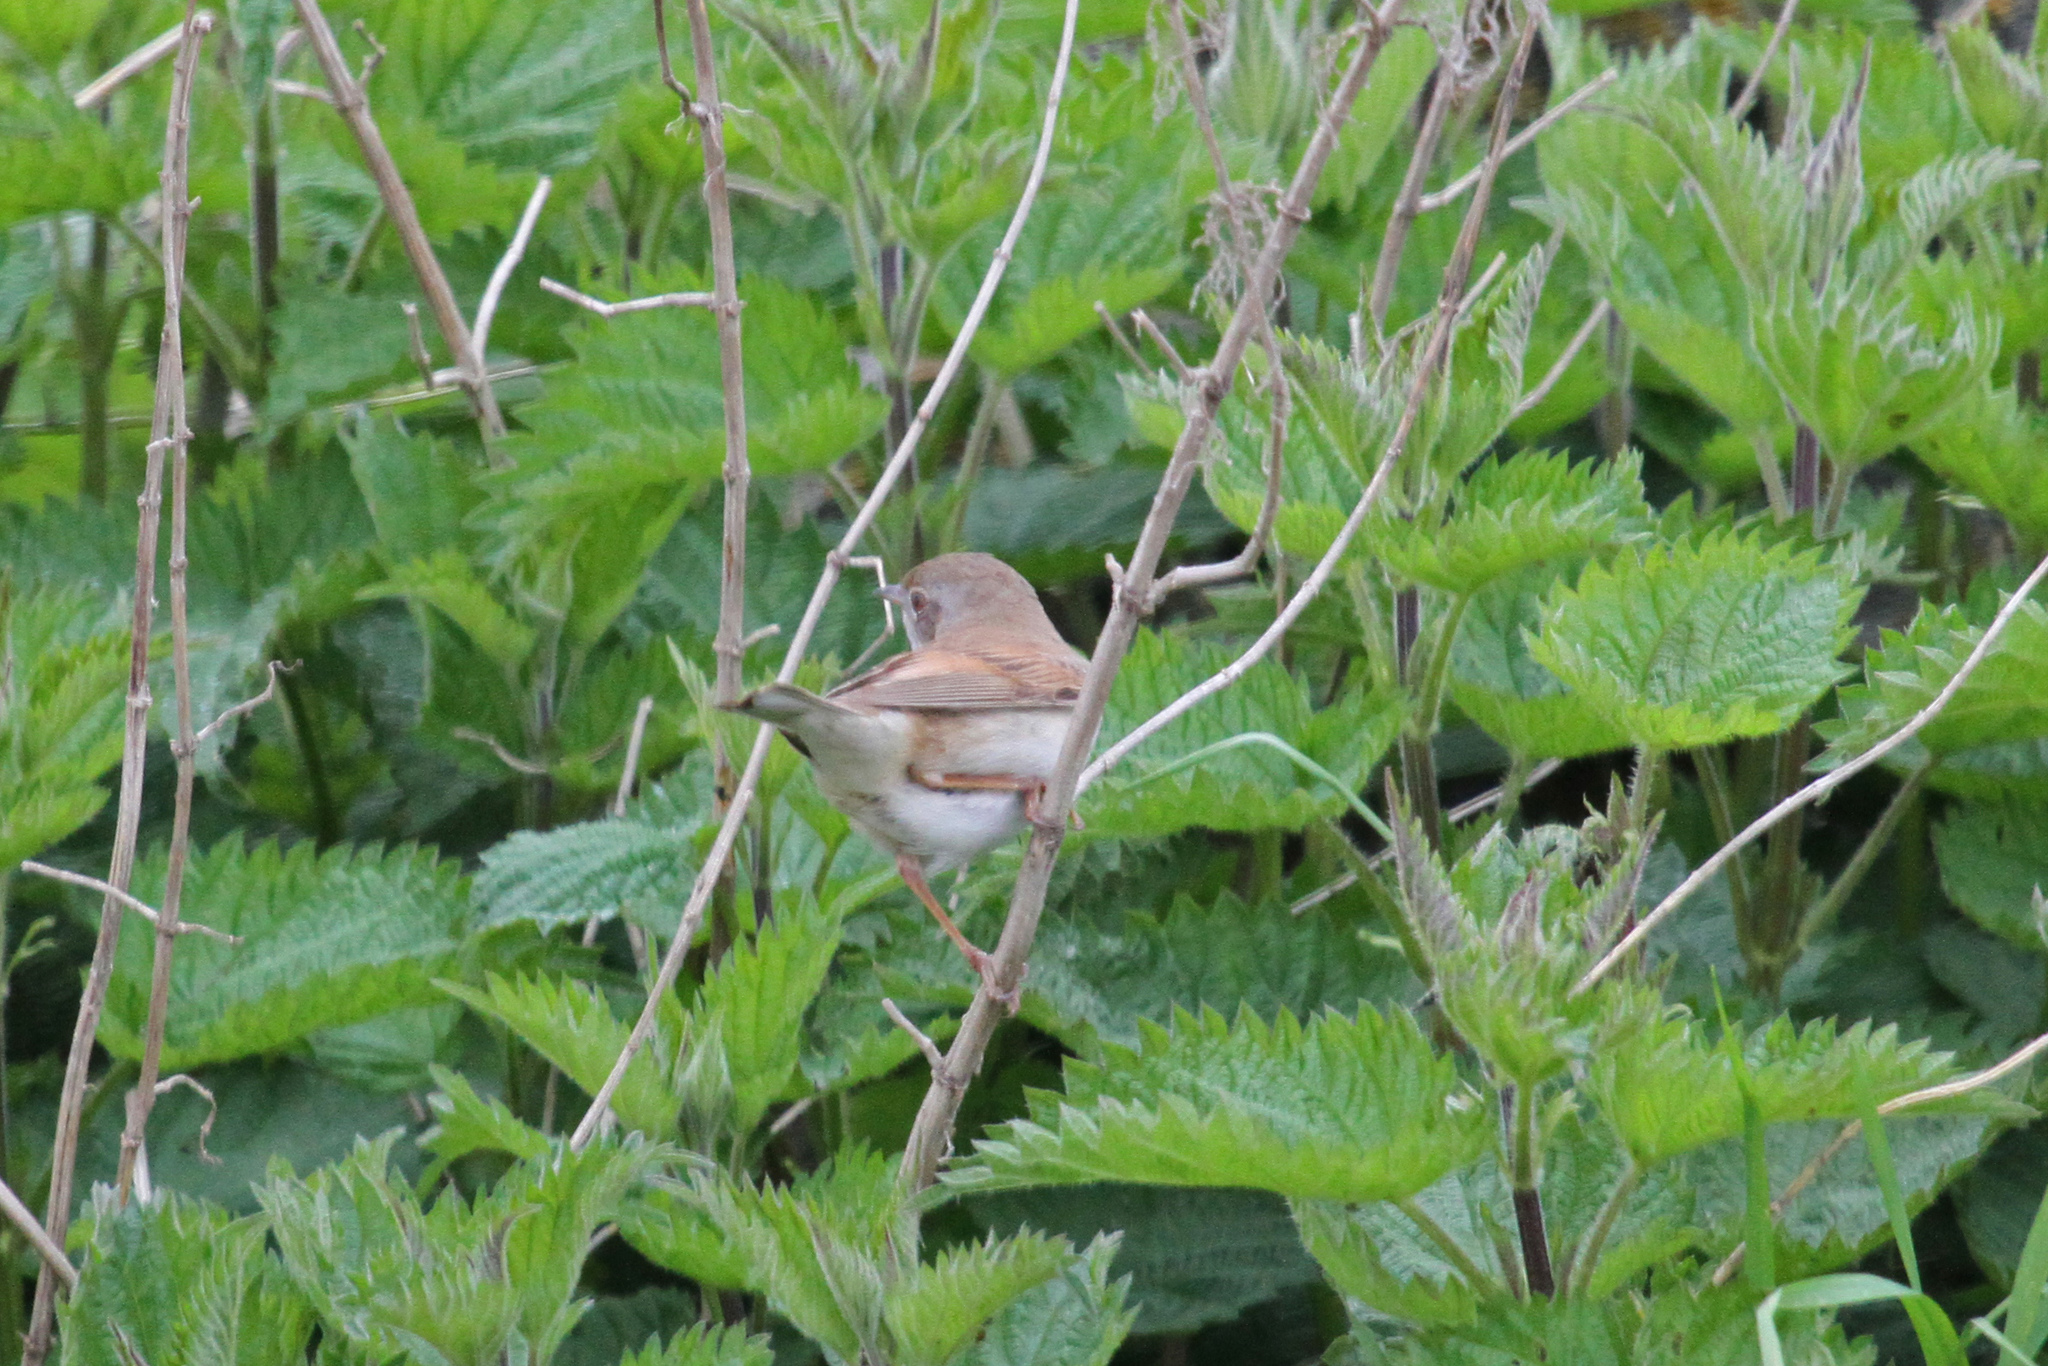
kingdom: Animalia
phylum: Chordata
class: Aves
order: Passeriformes
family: Sylviidae
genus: Sylvia
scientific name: Sylvia communis
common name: Common whitethroat
